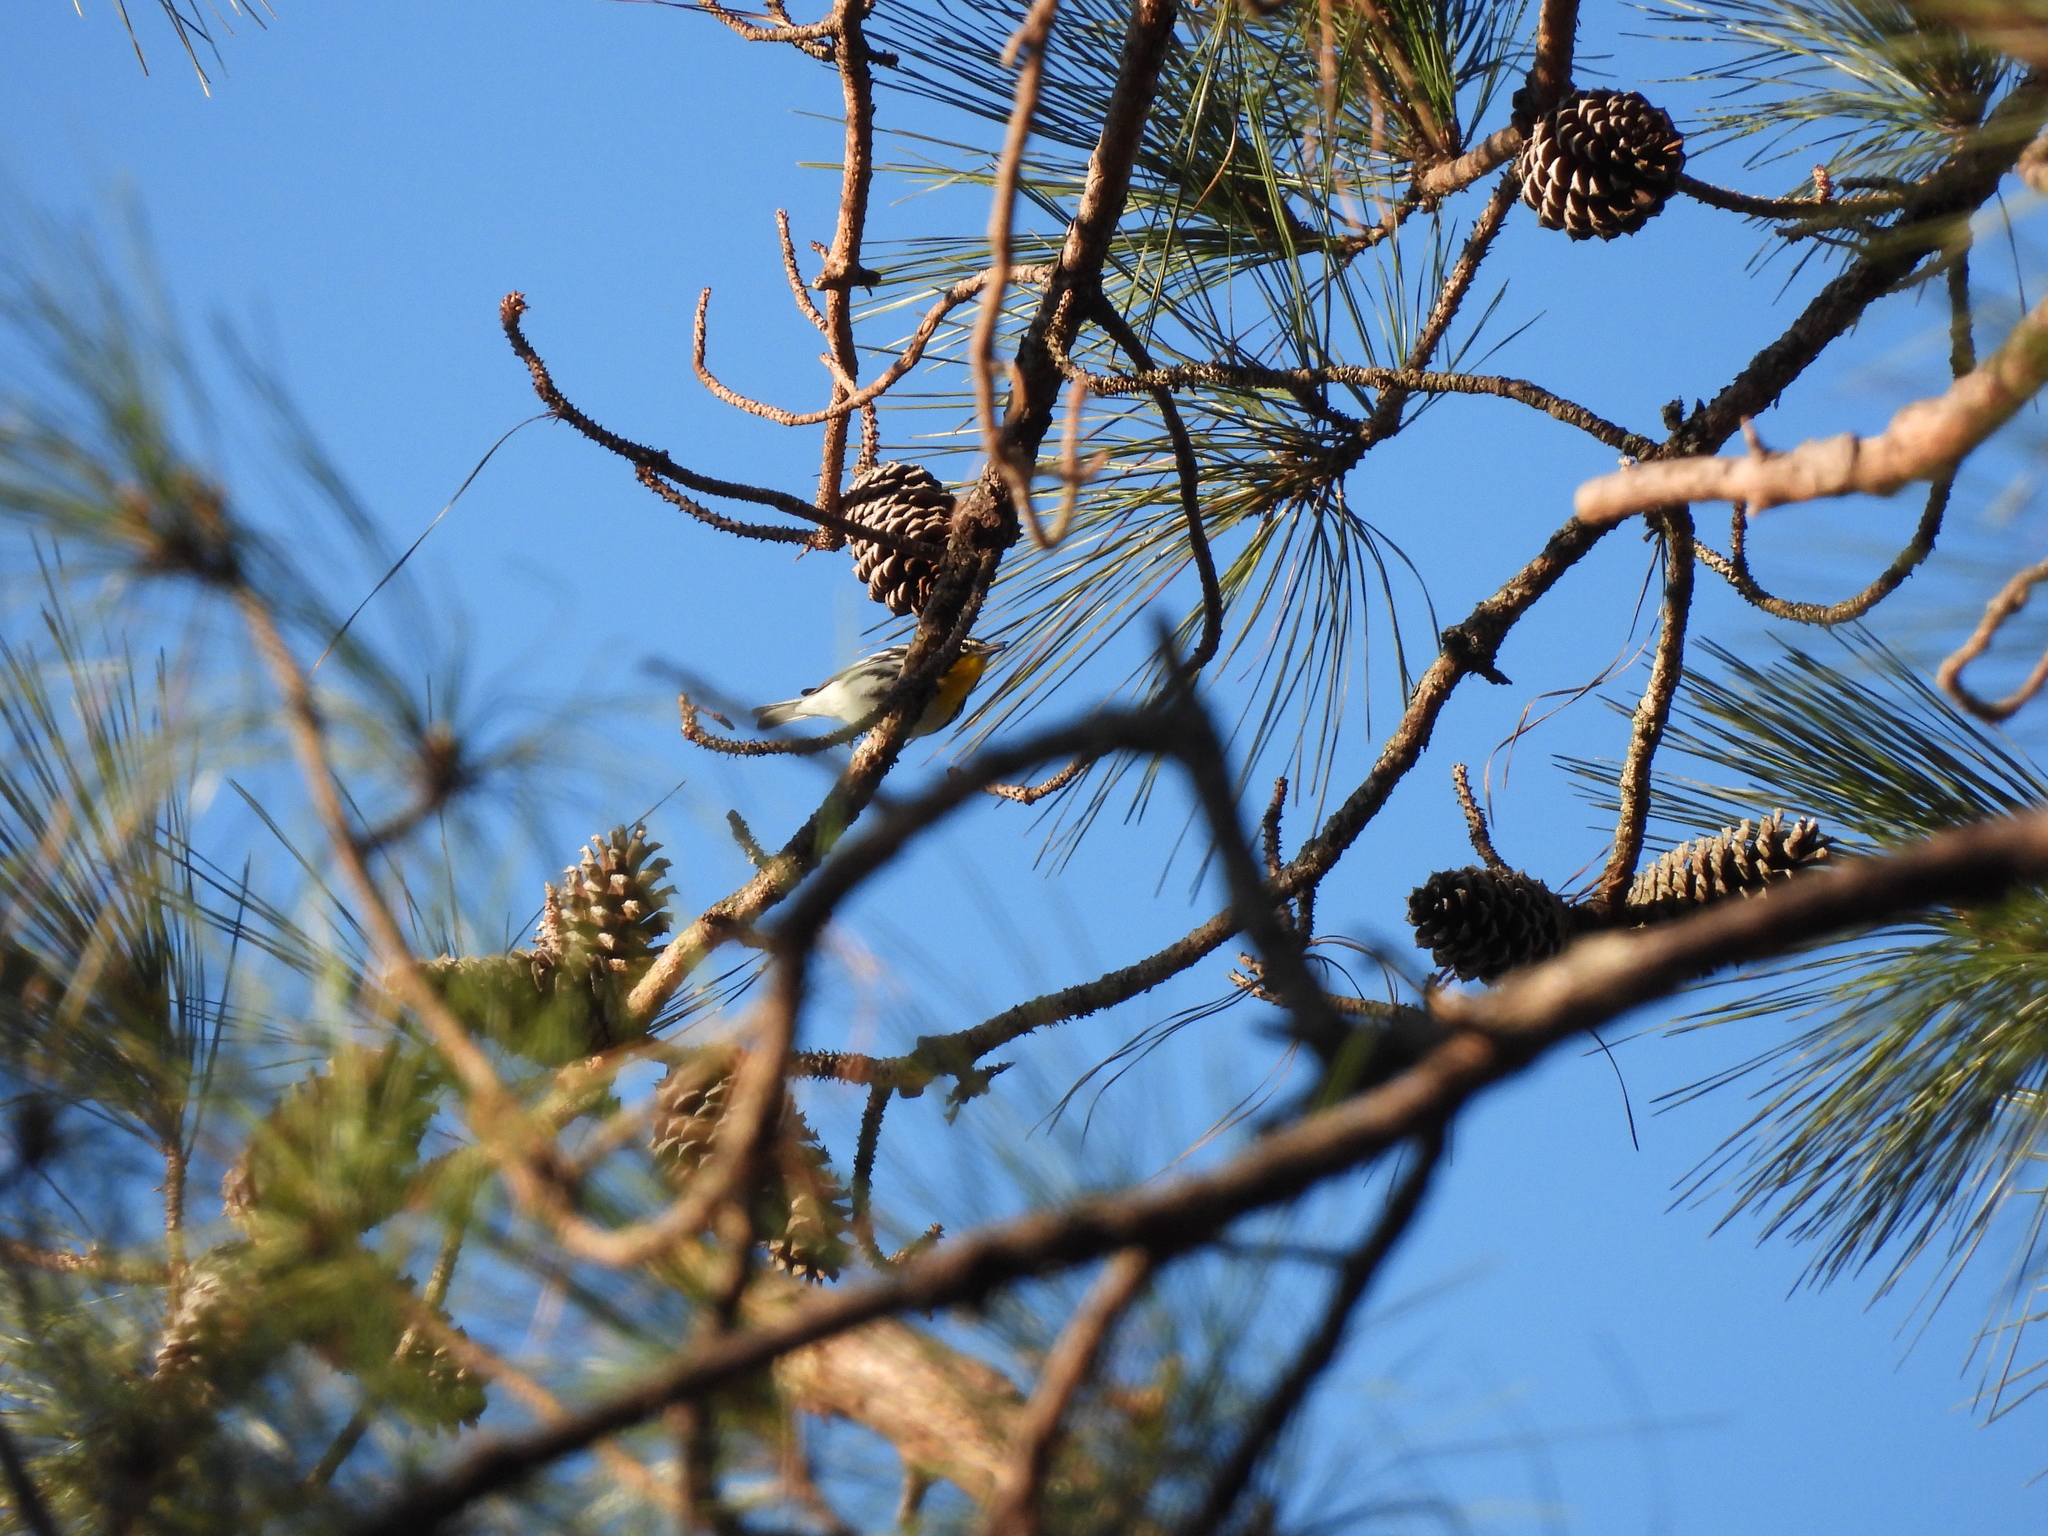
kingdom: Animalia
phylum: Chordata
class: Aves
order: Passeriformes
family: Parulidae
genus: Setophaga
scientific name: Setophaga dominica
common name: Yellow-throated warbler
